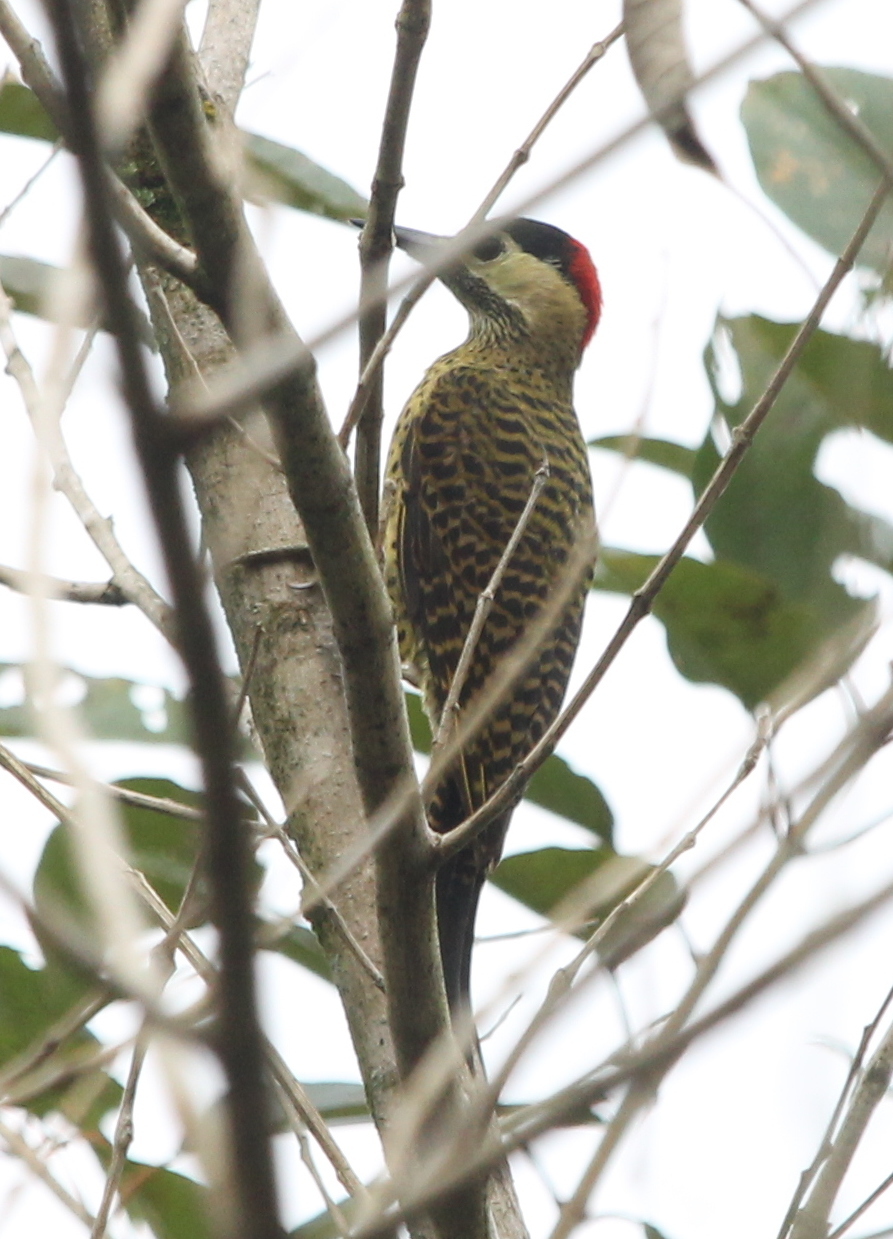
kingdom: Animalia
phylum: Chordata
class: Aves
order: Piciformes
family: Picidae
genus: Colaptes
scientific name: Colaptes melanochloros
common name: Green-barred woodpecker
